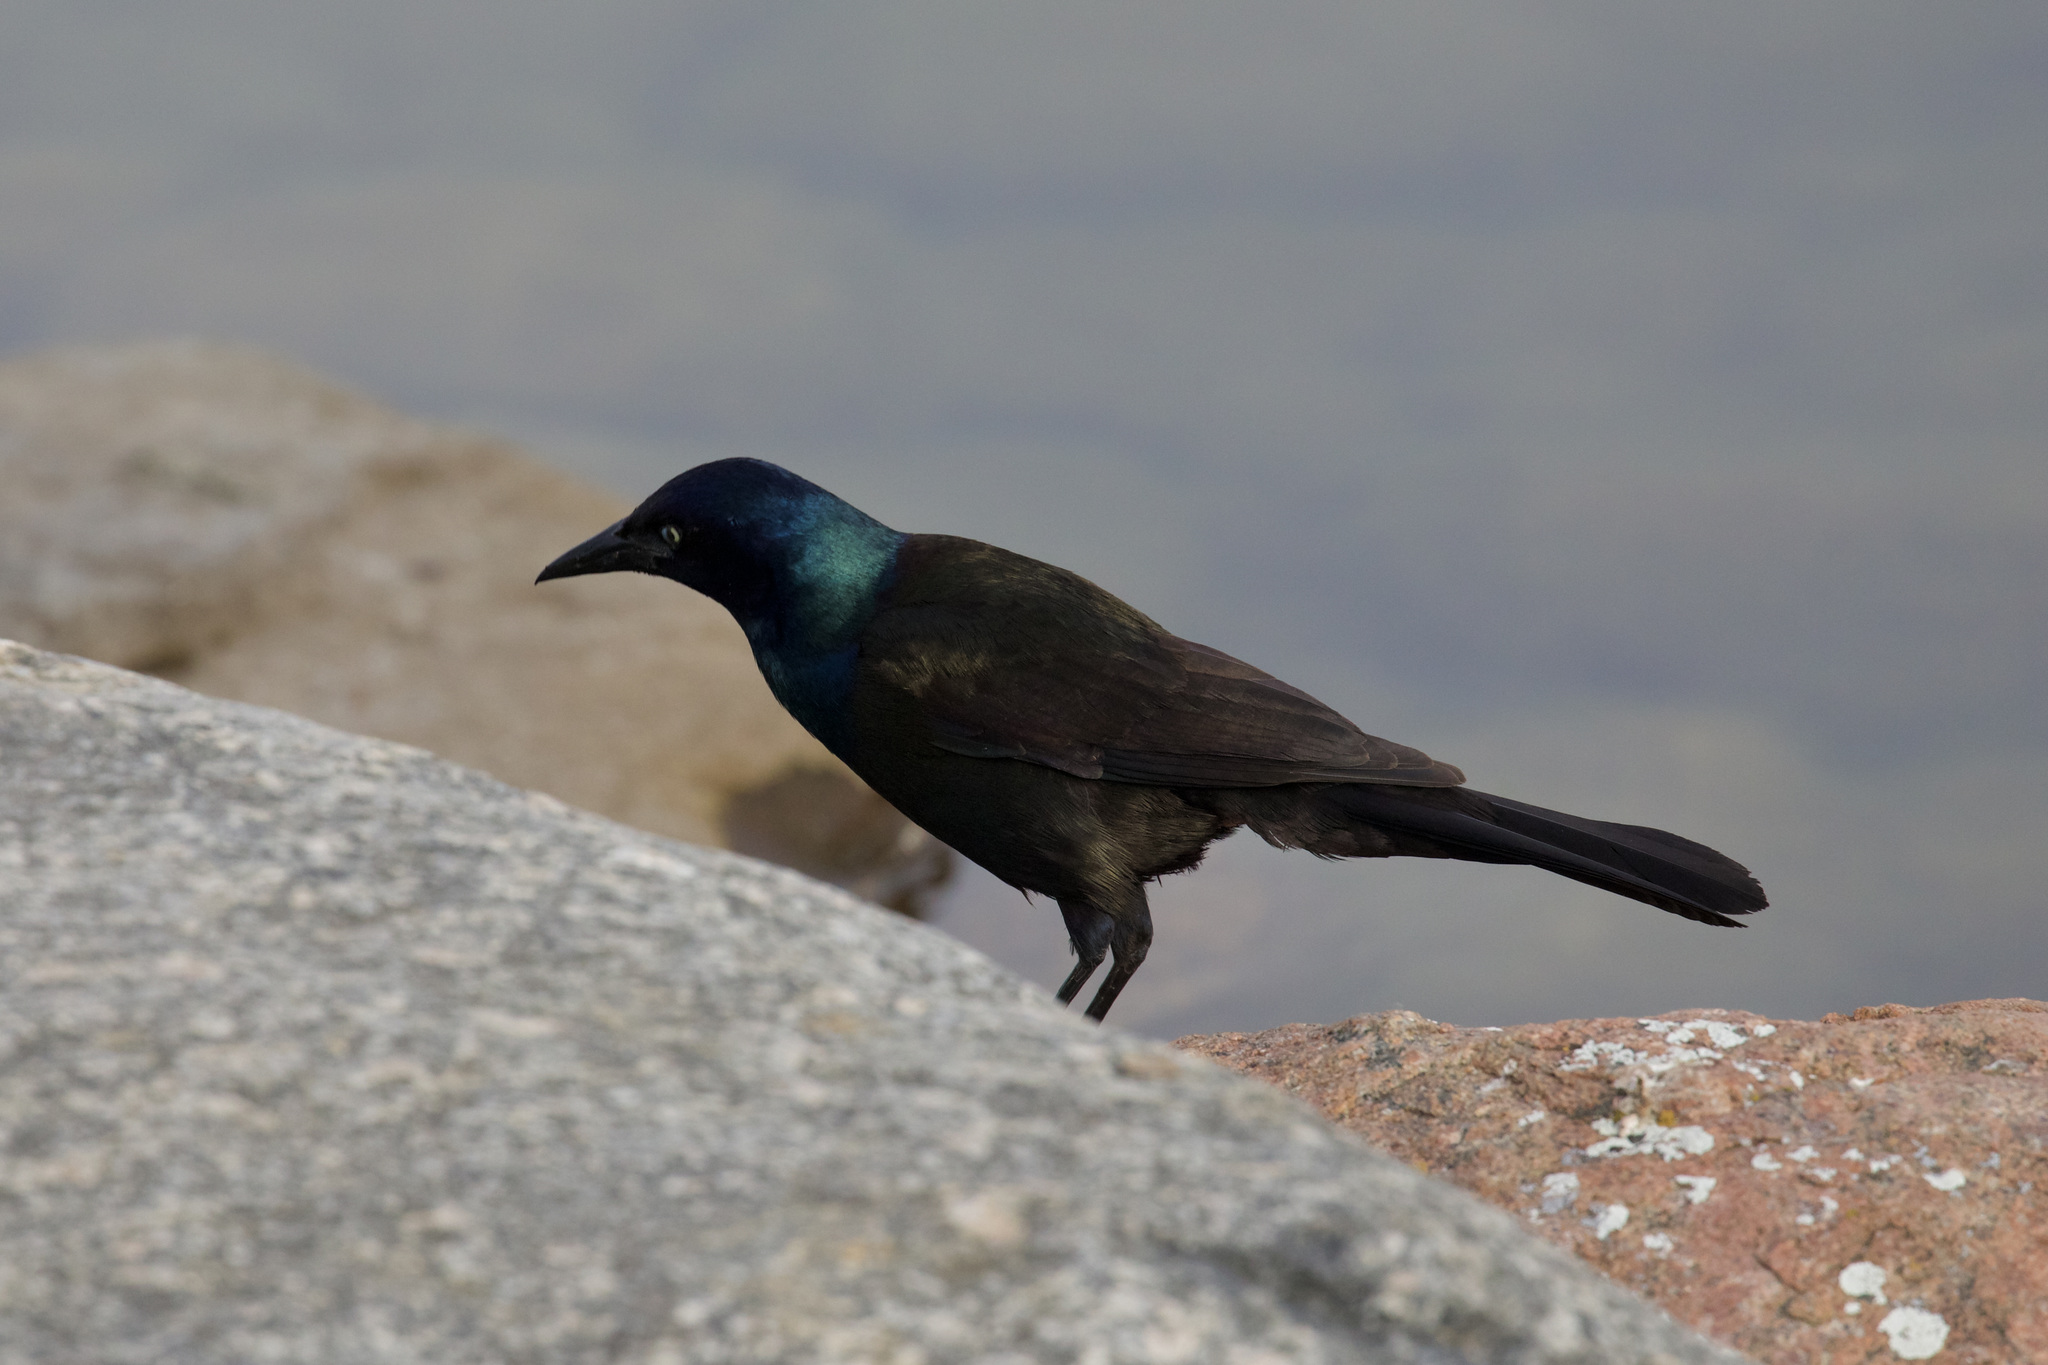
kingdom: Animalia
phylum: Chordata
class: Aves
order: Passeriformes
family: Icteridae
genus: Quiscalus
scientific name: Quiscalus quiscula
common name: Common grackle
